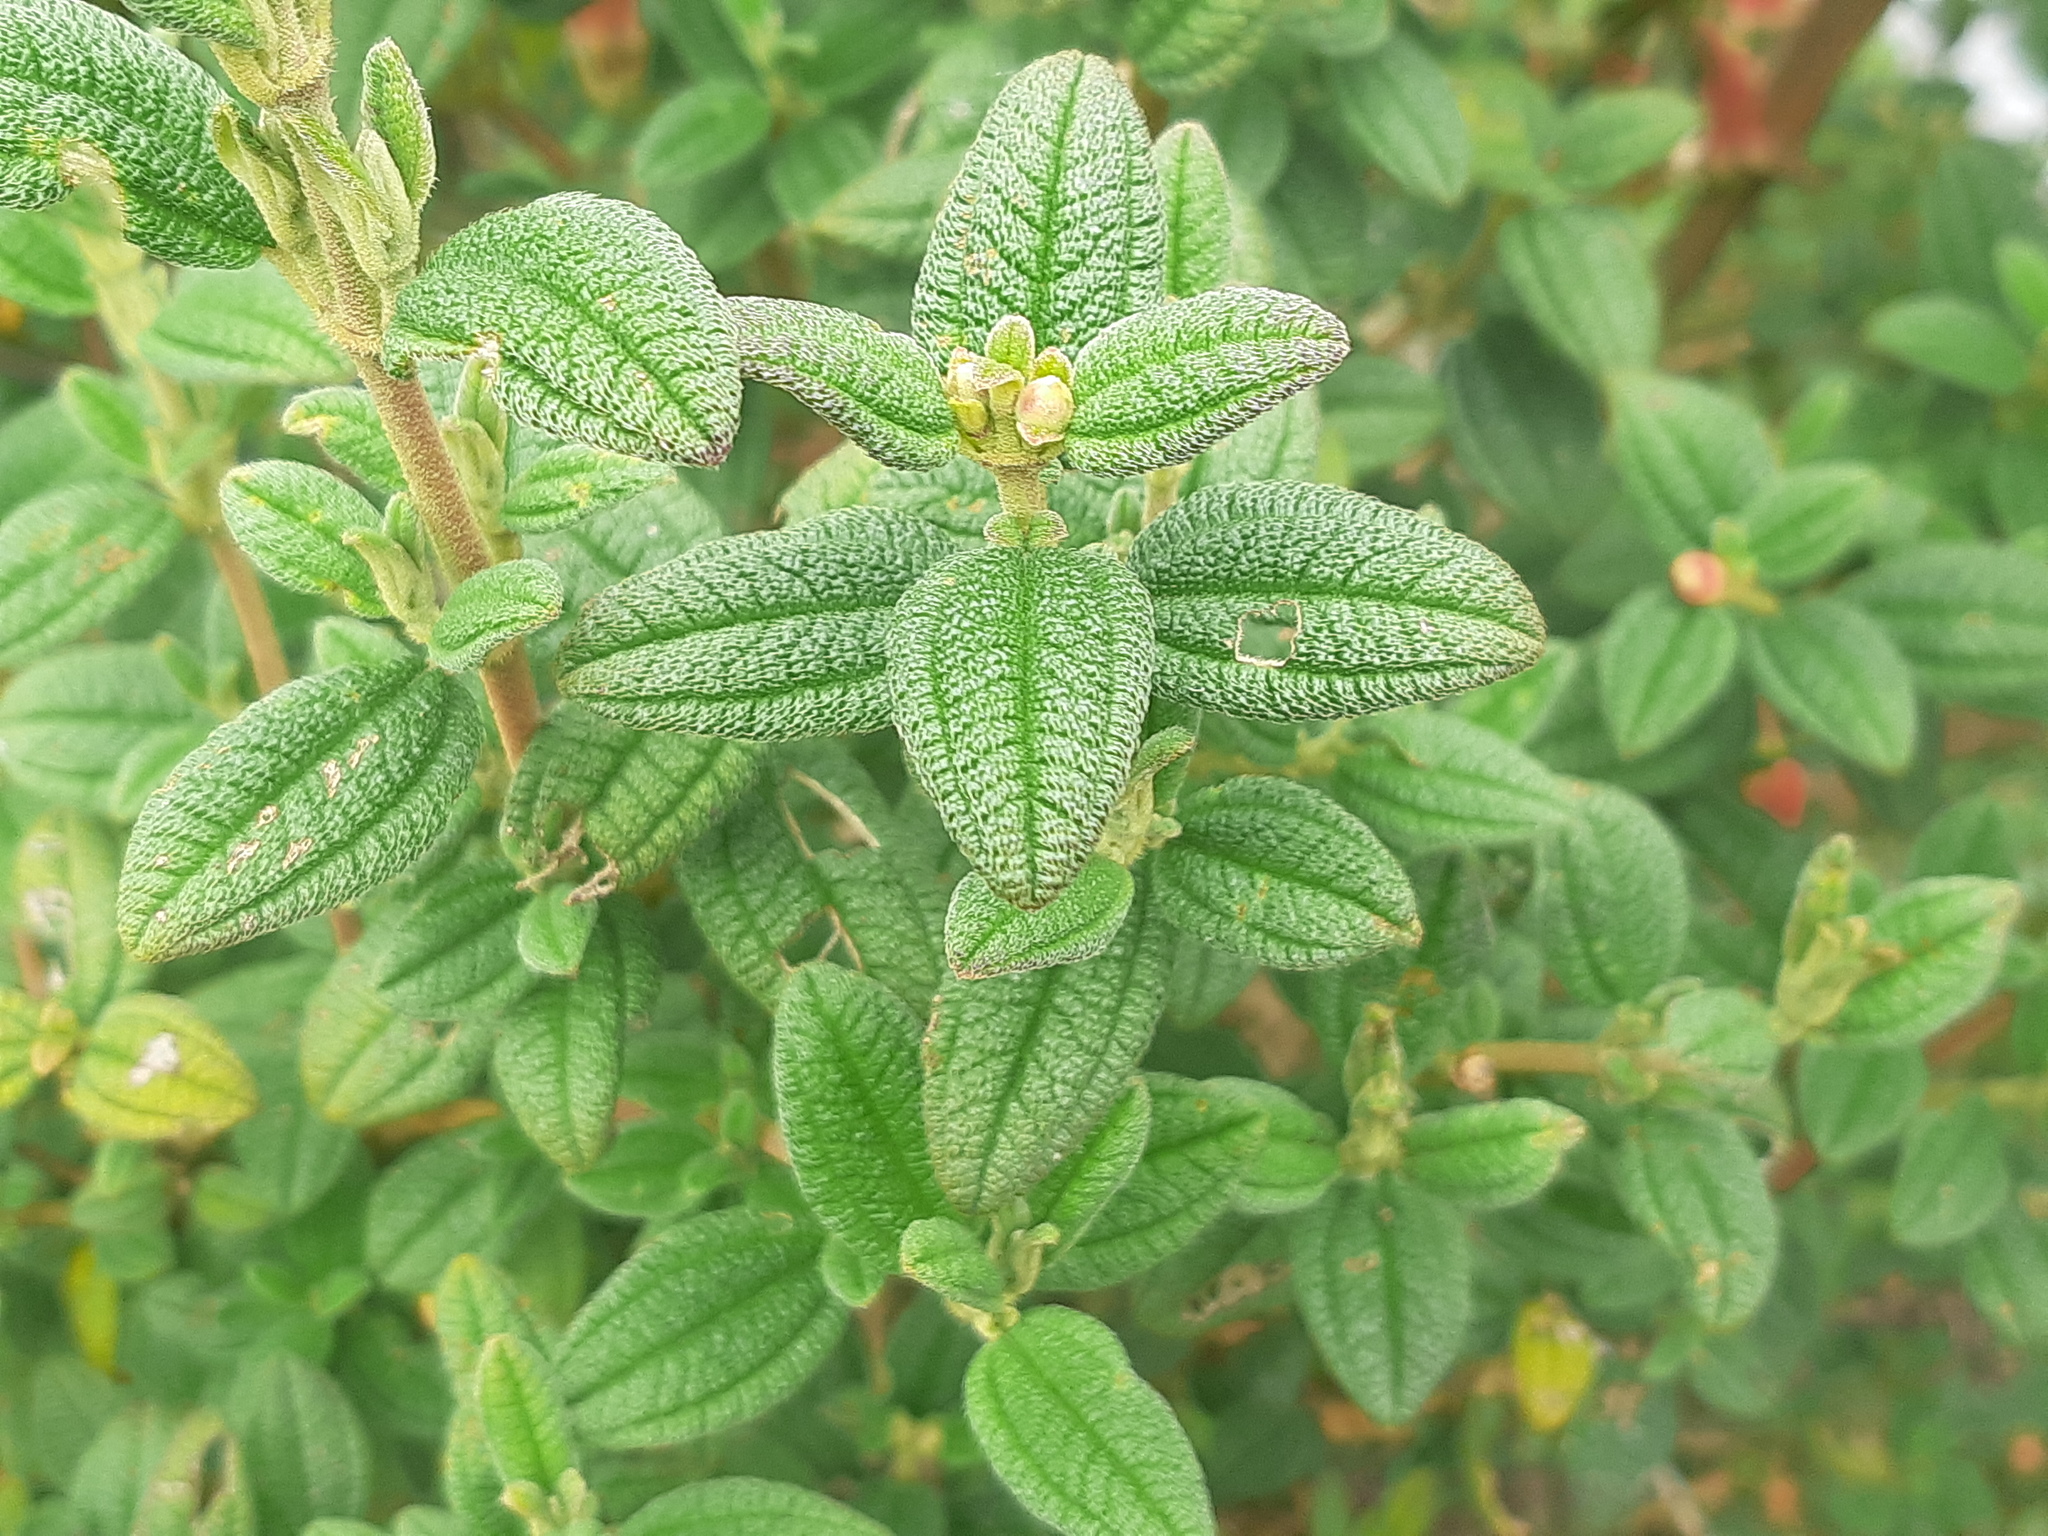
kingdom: Plantae
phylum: Tracheophyta
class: Magnoliopsida
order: Myrtales
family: Melastomataceae
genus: Brachyotum
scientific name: Brachyotum ledifolium
